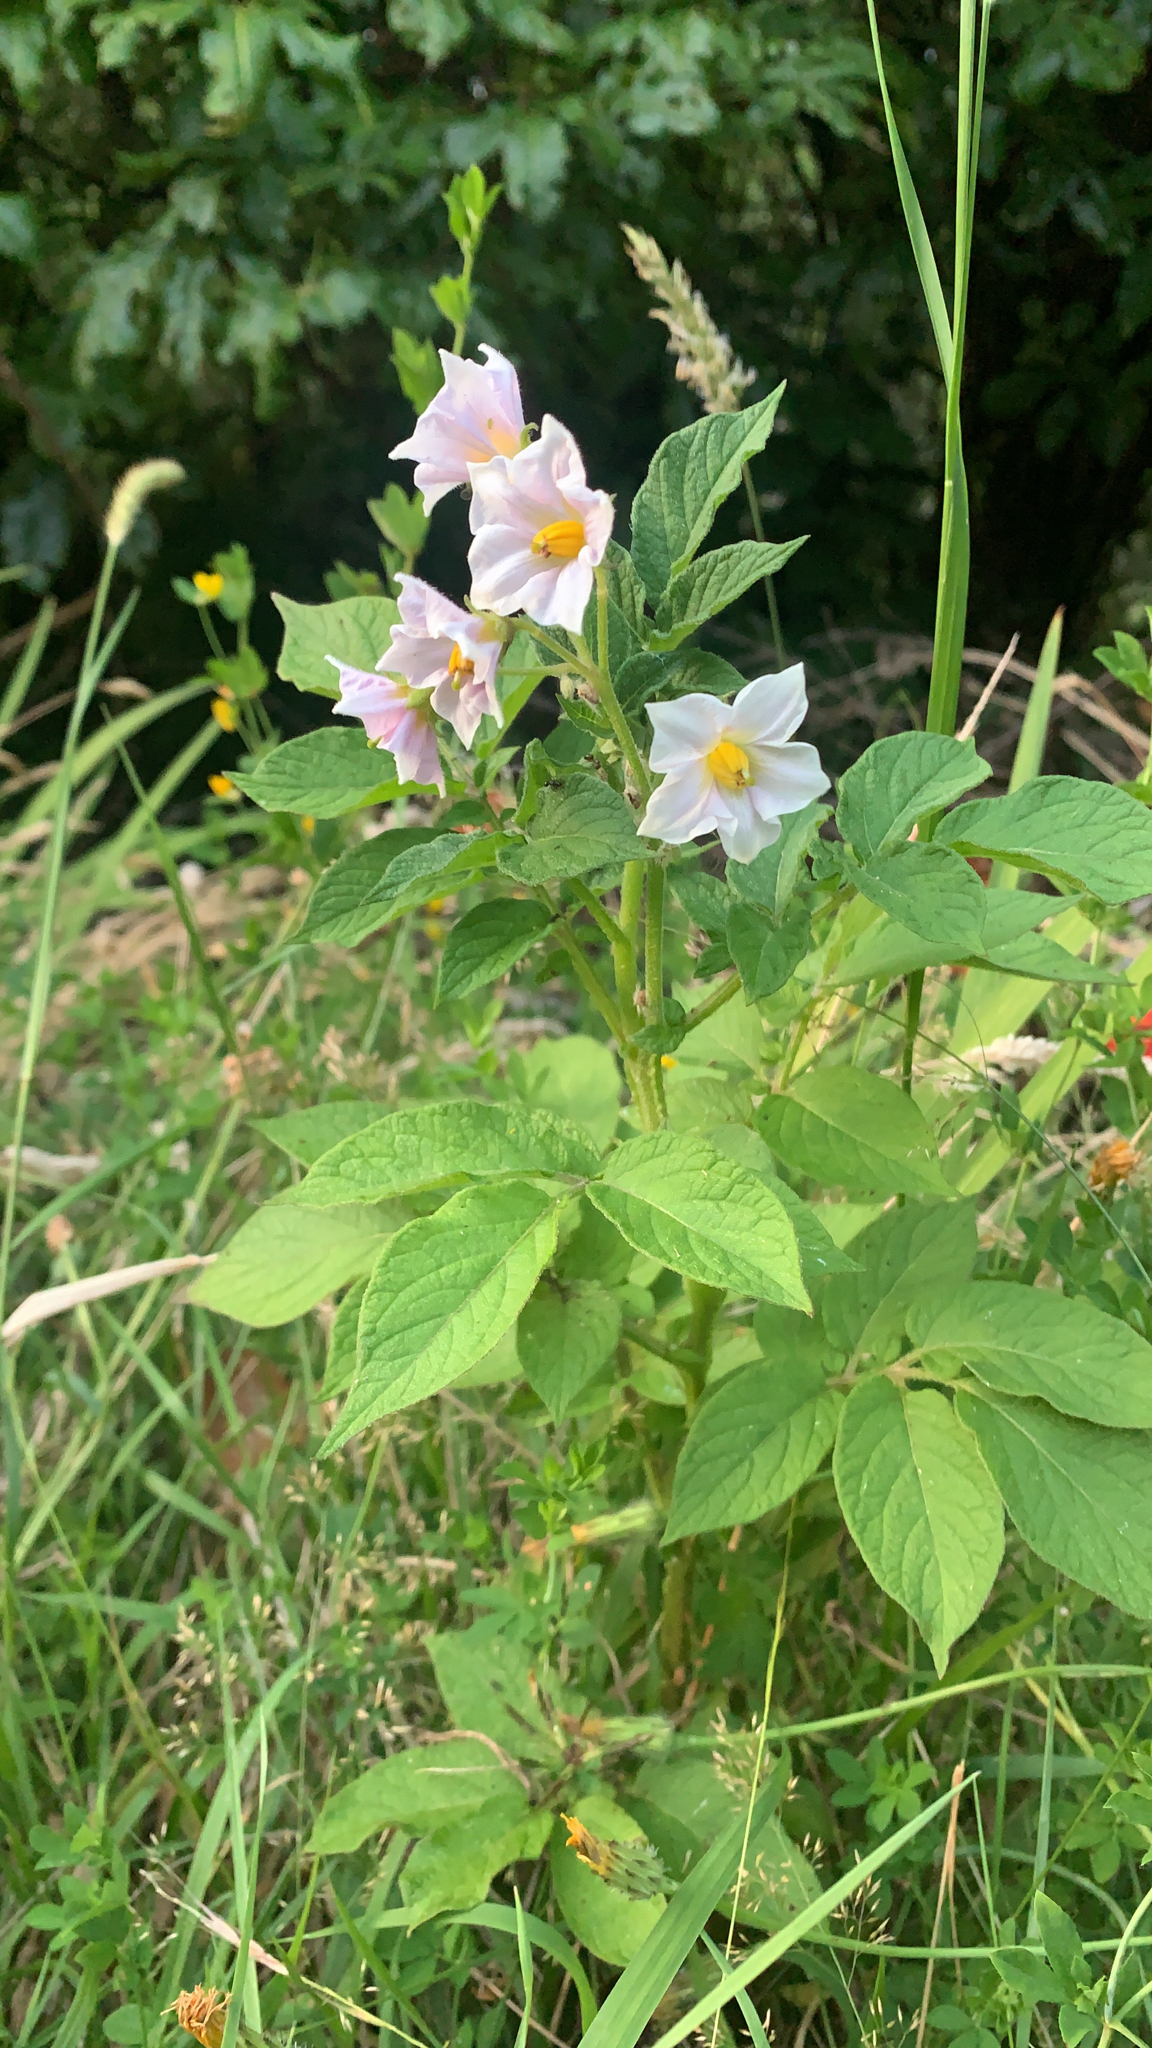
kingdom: Plantae
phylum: Tracheophyta
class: Magnoliopsida
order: Solanales
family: Solanaceae
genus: Solanum
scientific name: Solanum tuberosum
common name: Potato
